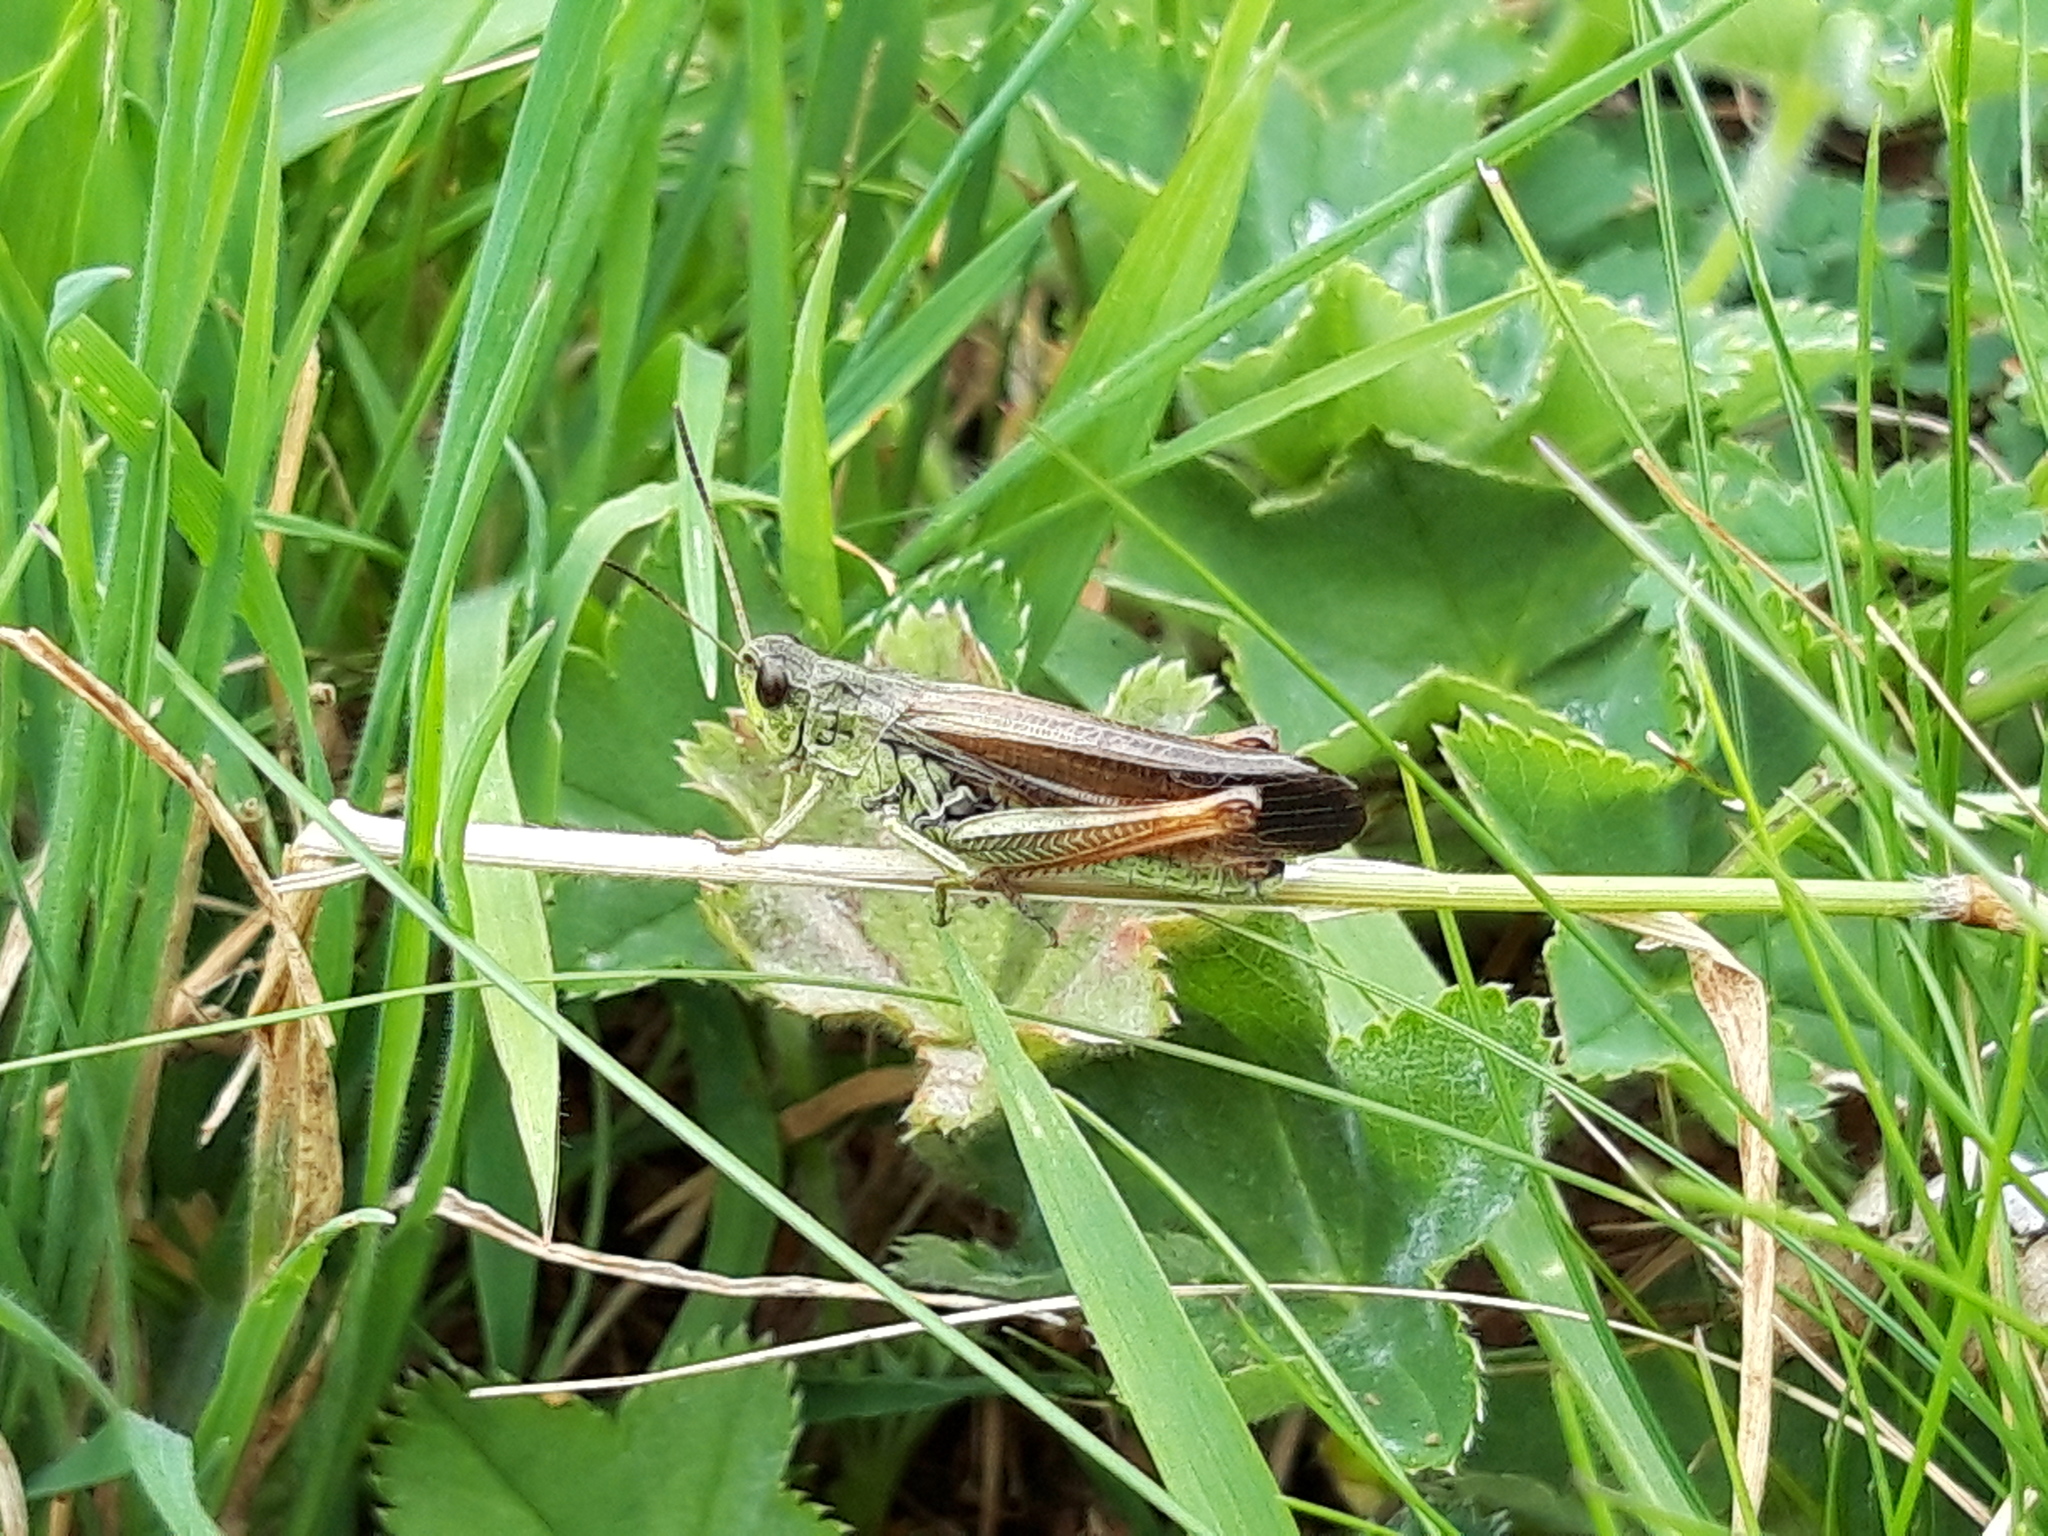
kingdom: Animalia
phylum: Arthropoda
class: Insecta
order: Orthoptera
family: Acrididae
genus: Stauroderus
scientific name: Stauroderus scalaris
